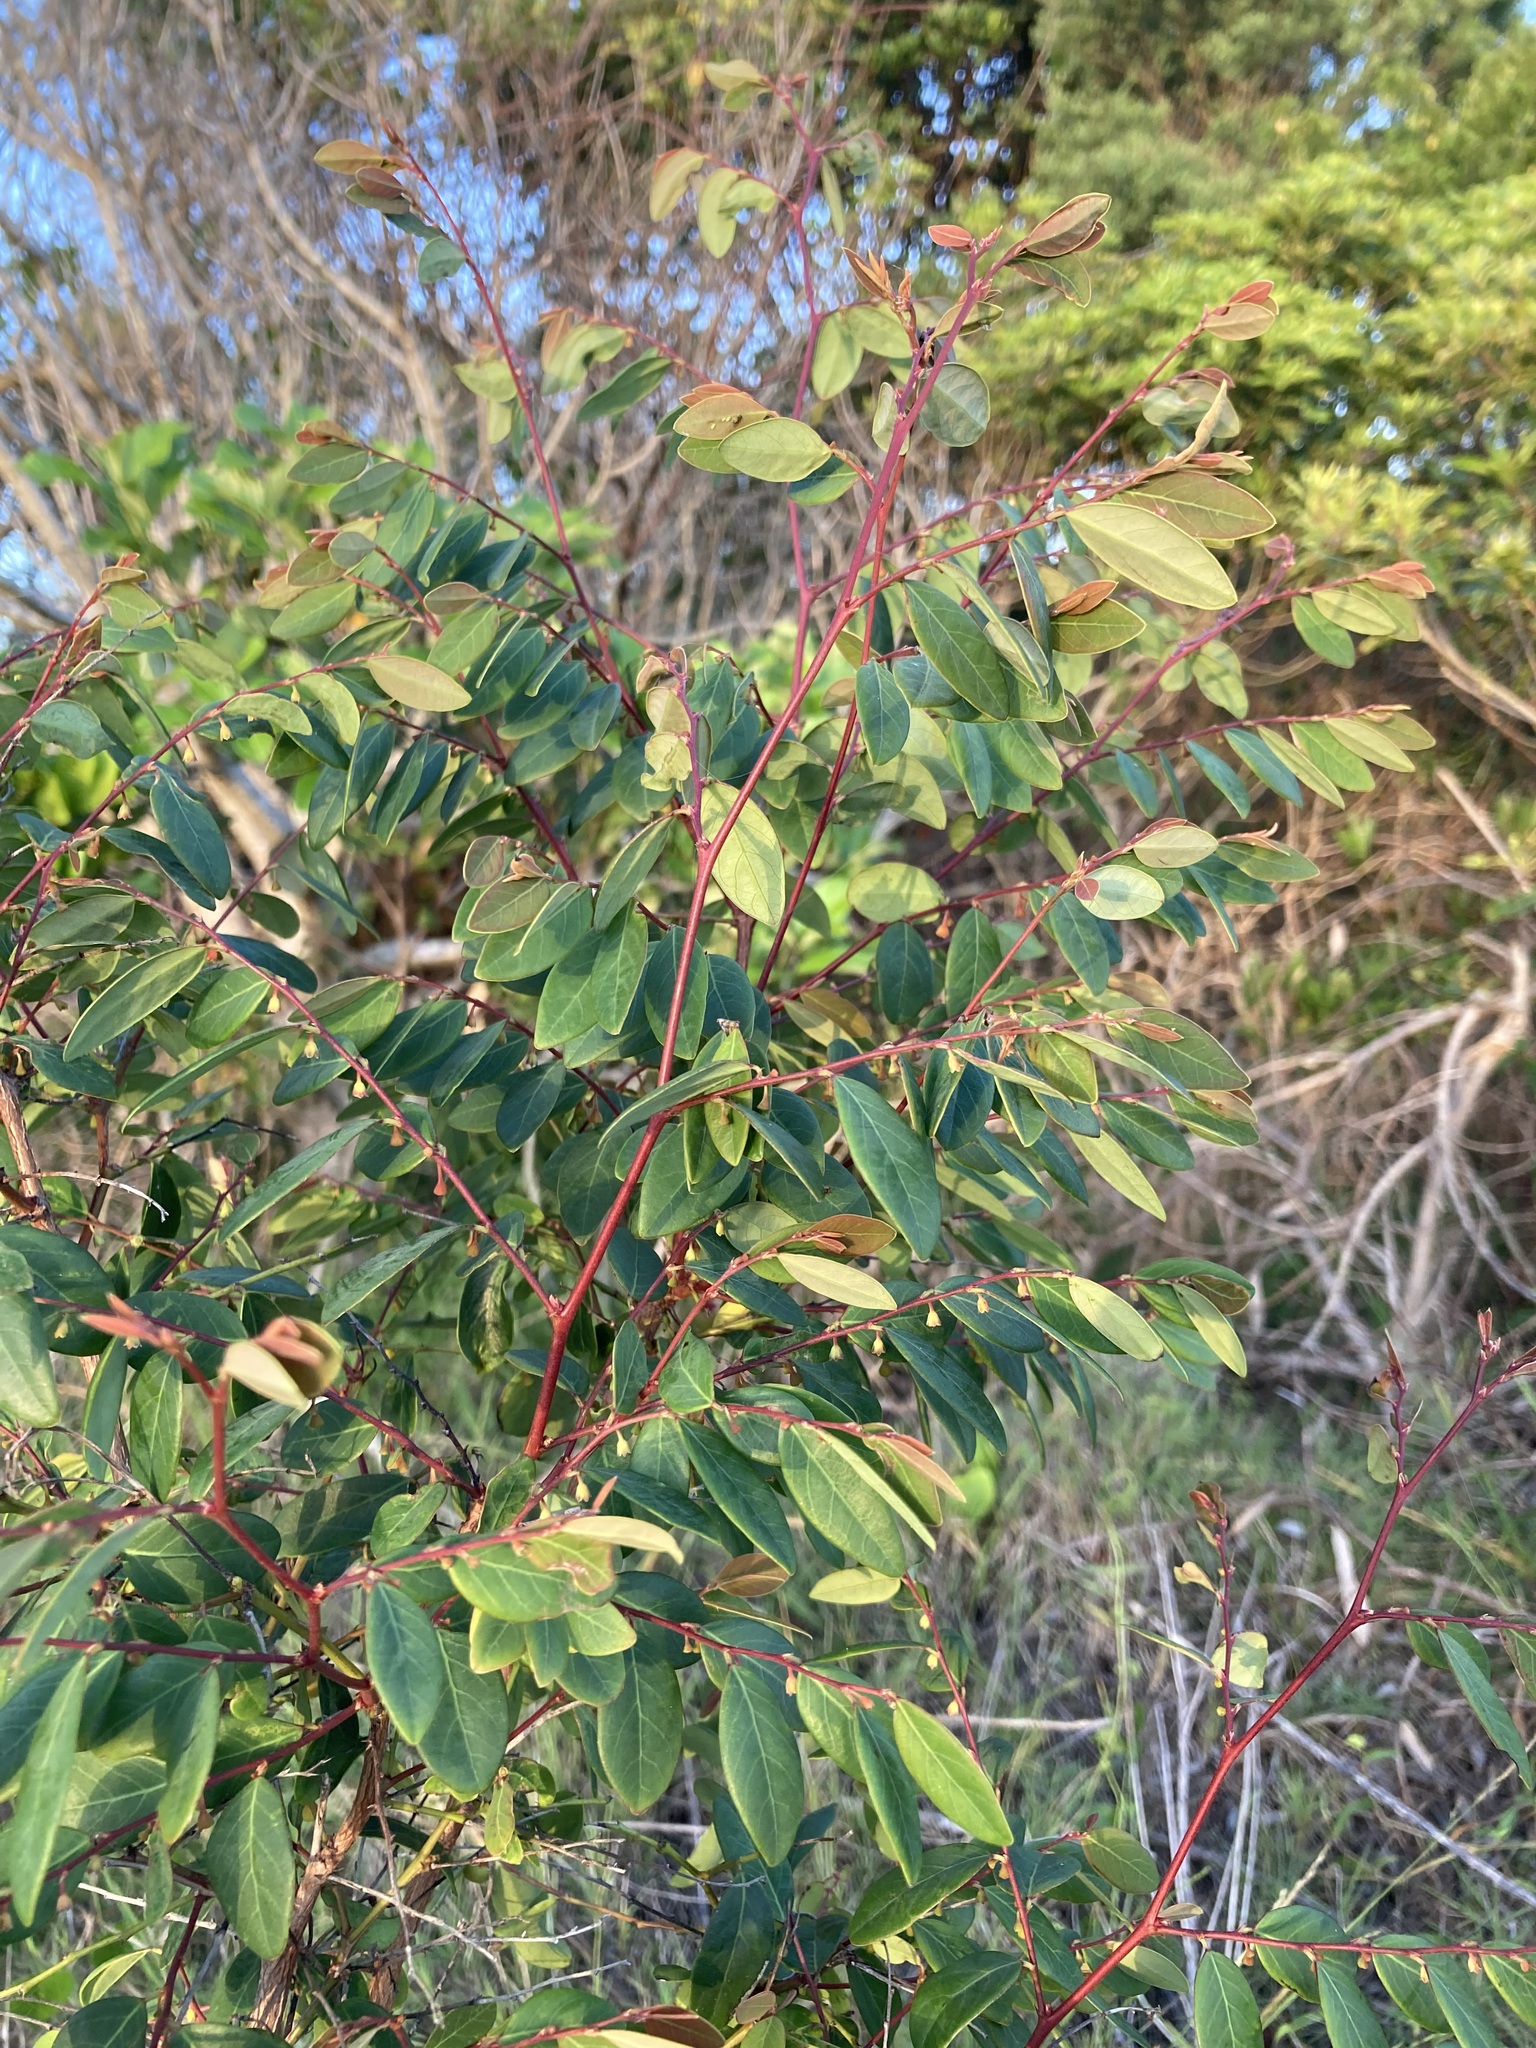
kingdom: Plantae
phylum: Tracheophyta
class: Magnoliopsida
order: Malpighiales
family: Phyllanthaceae
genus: Breynia
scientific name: Breynia oblongifolia
